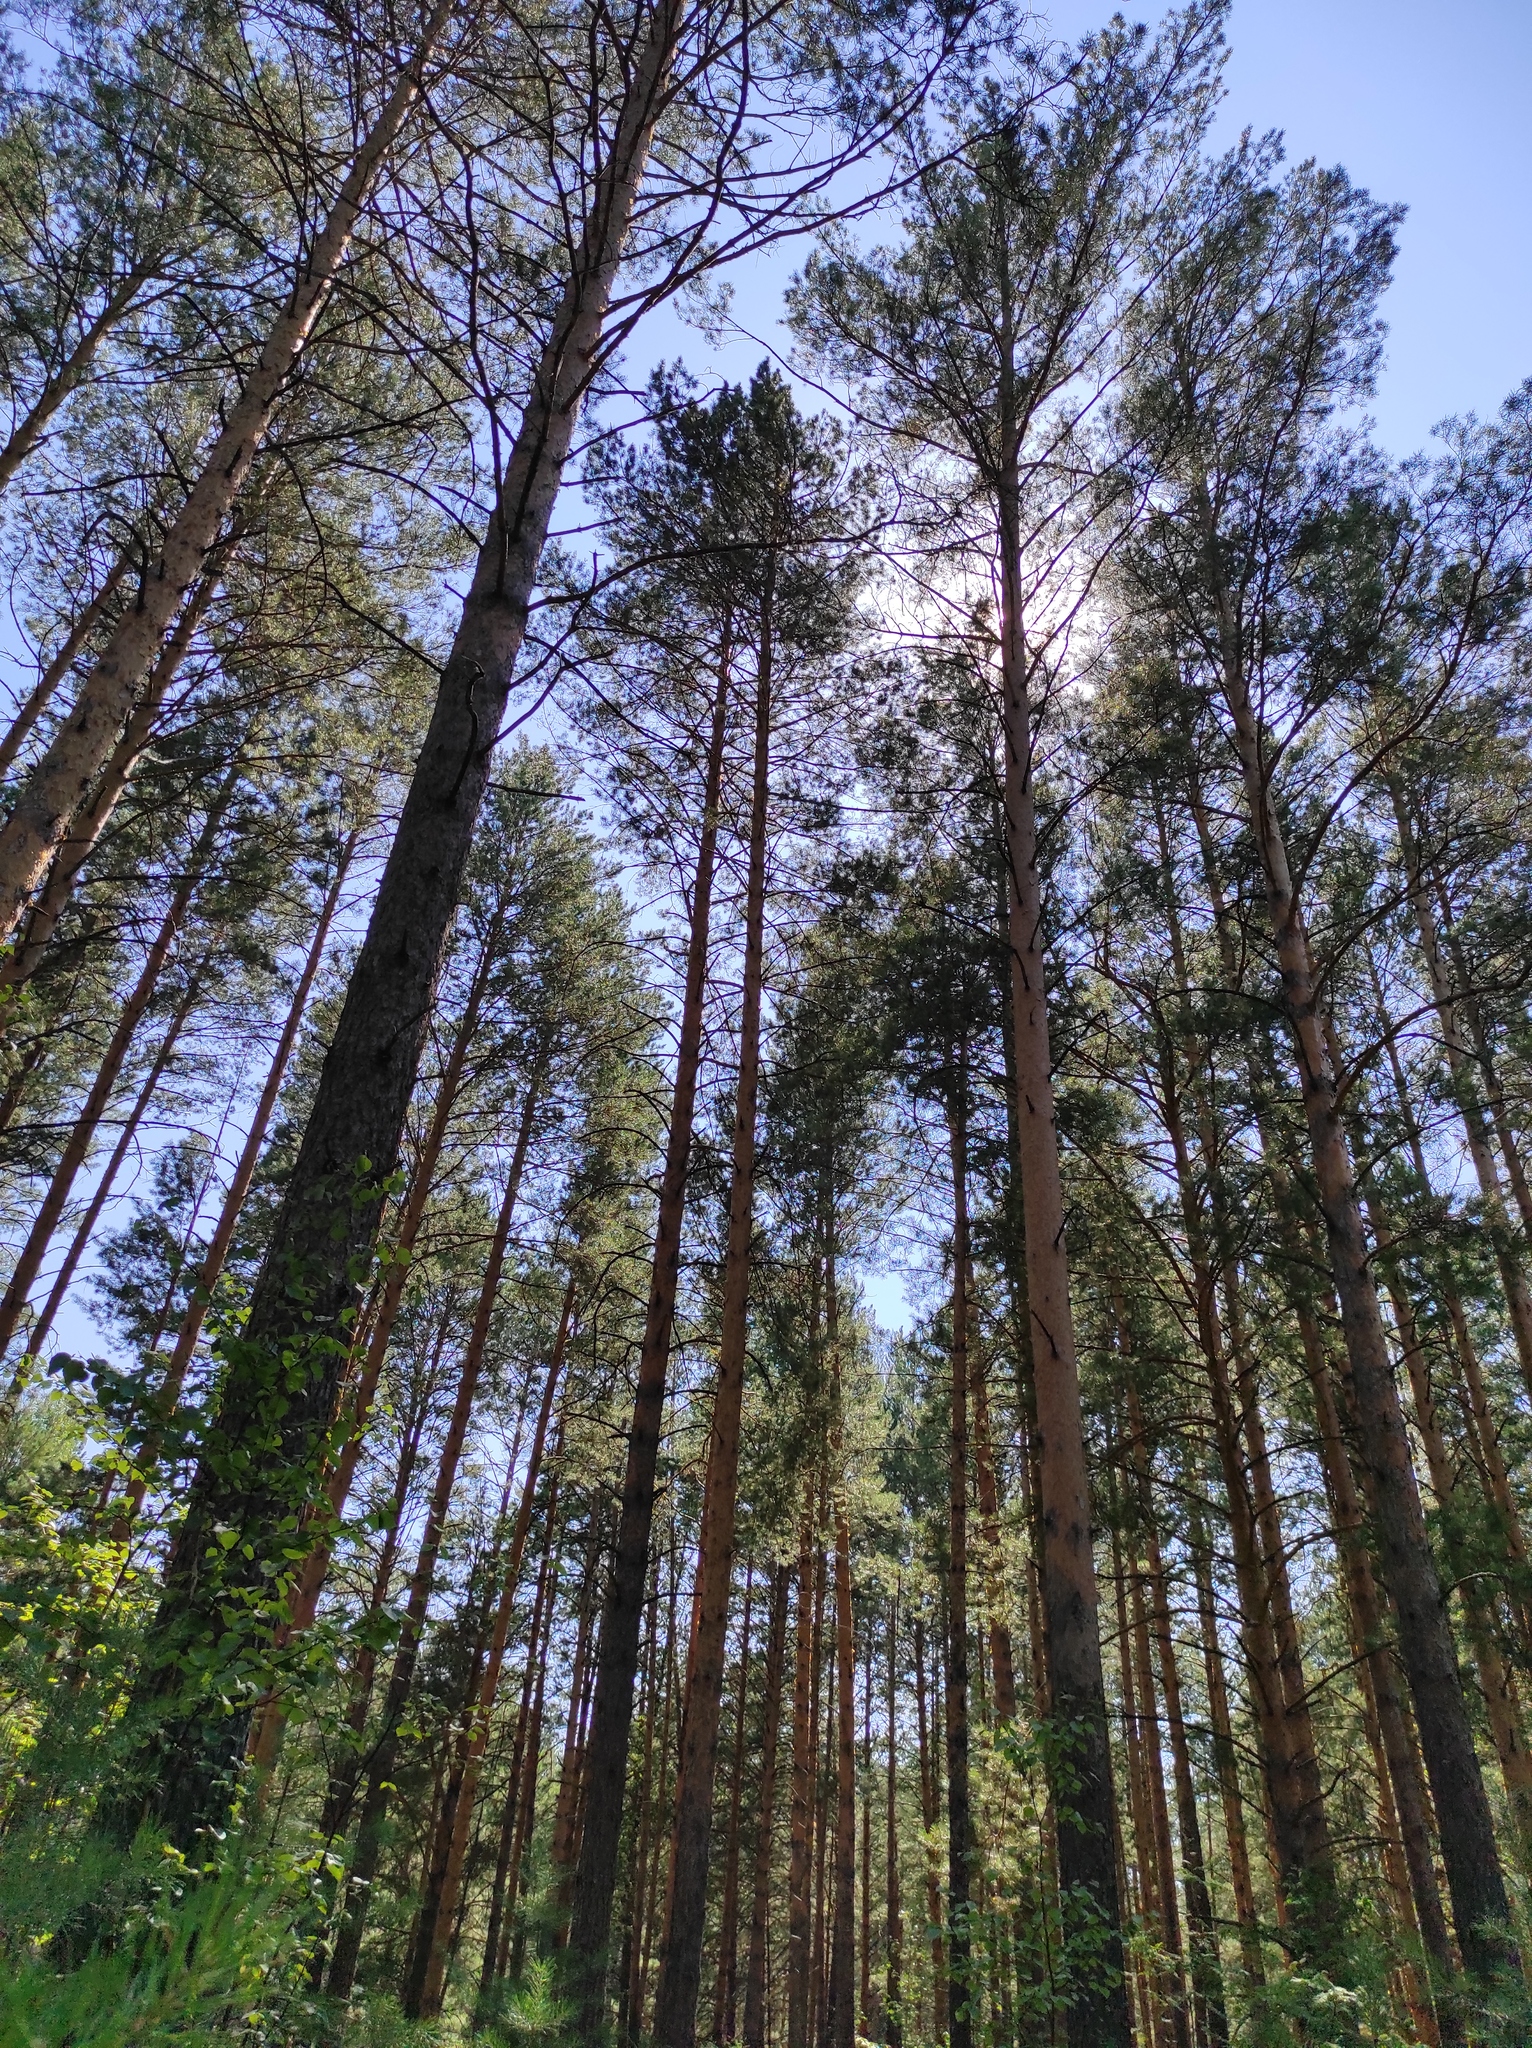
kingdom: Plantae
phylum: Tracheophyta
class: Pinopsida
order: Pinales
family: Pinaceae
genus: Pinus
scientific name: Pinus sylvestris
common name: Scots pine
